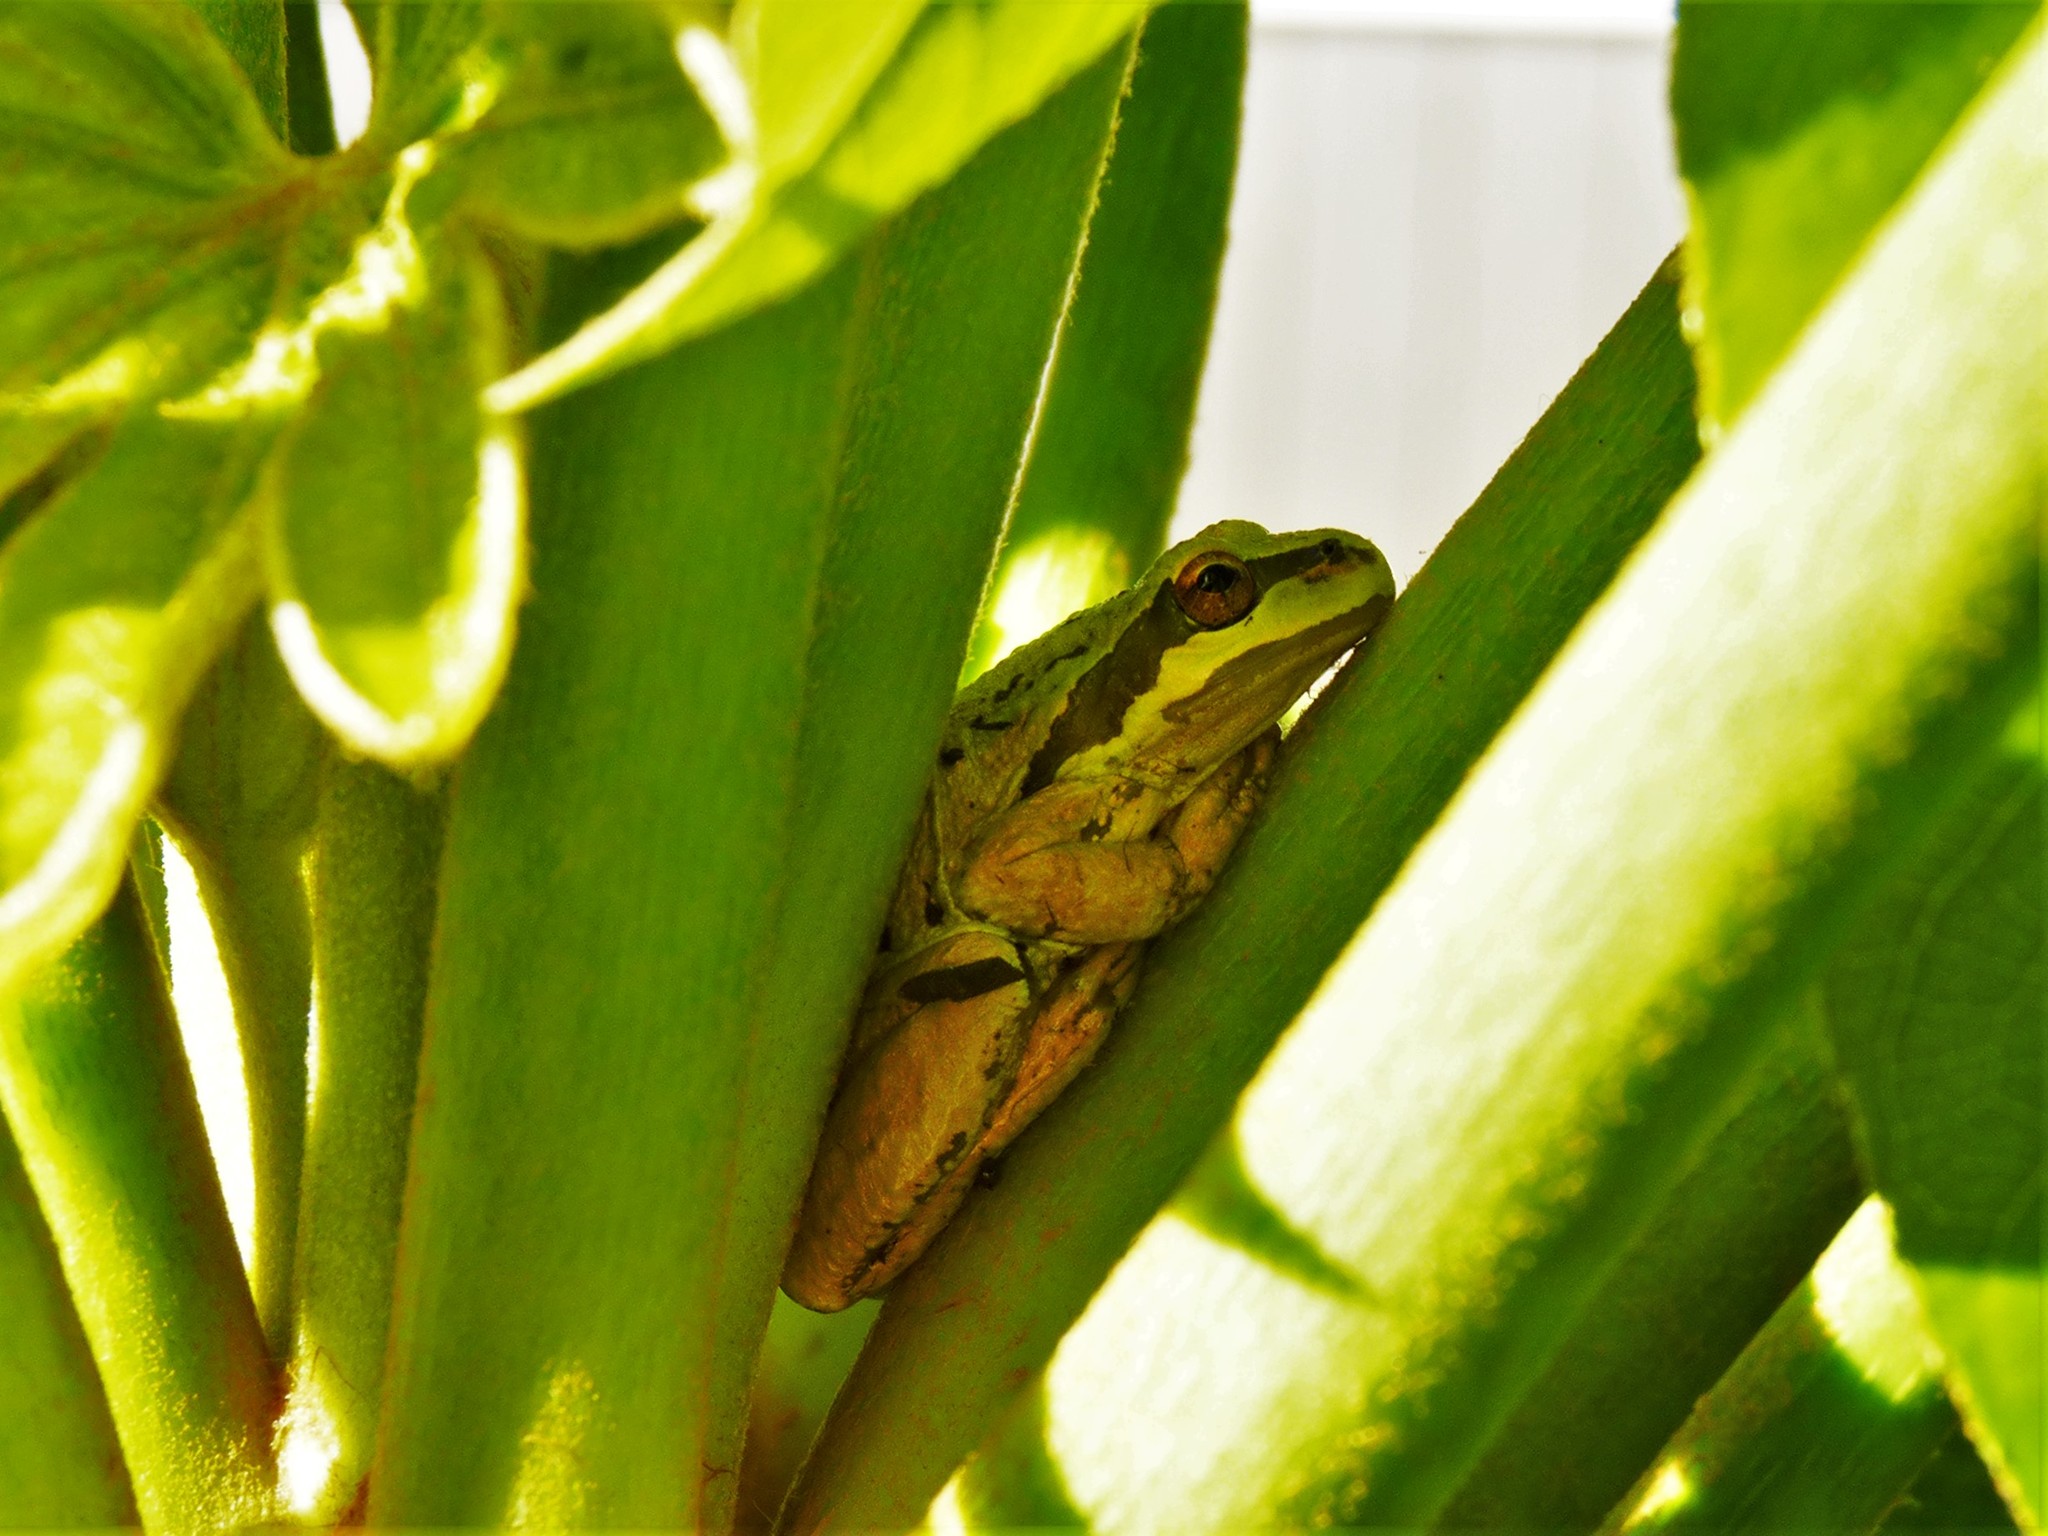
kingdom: Animalia
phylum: Chordata
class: Amphibia
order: Anura
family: Hylidae
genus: Pseudacris
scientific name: Pseudacris regilla
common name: Pacific chorus frog
